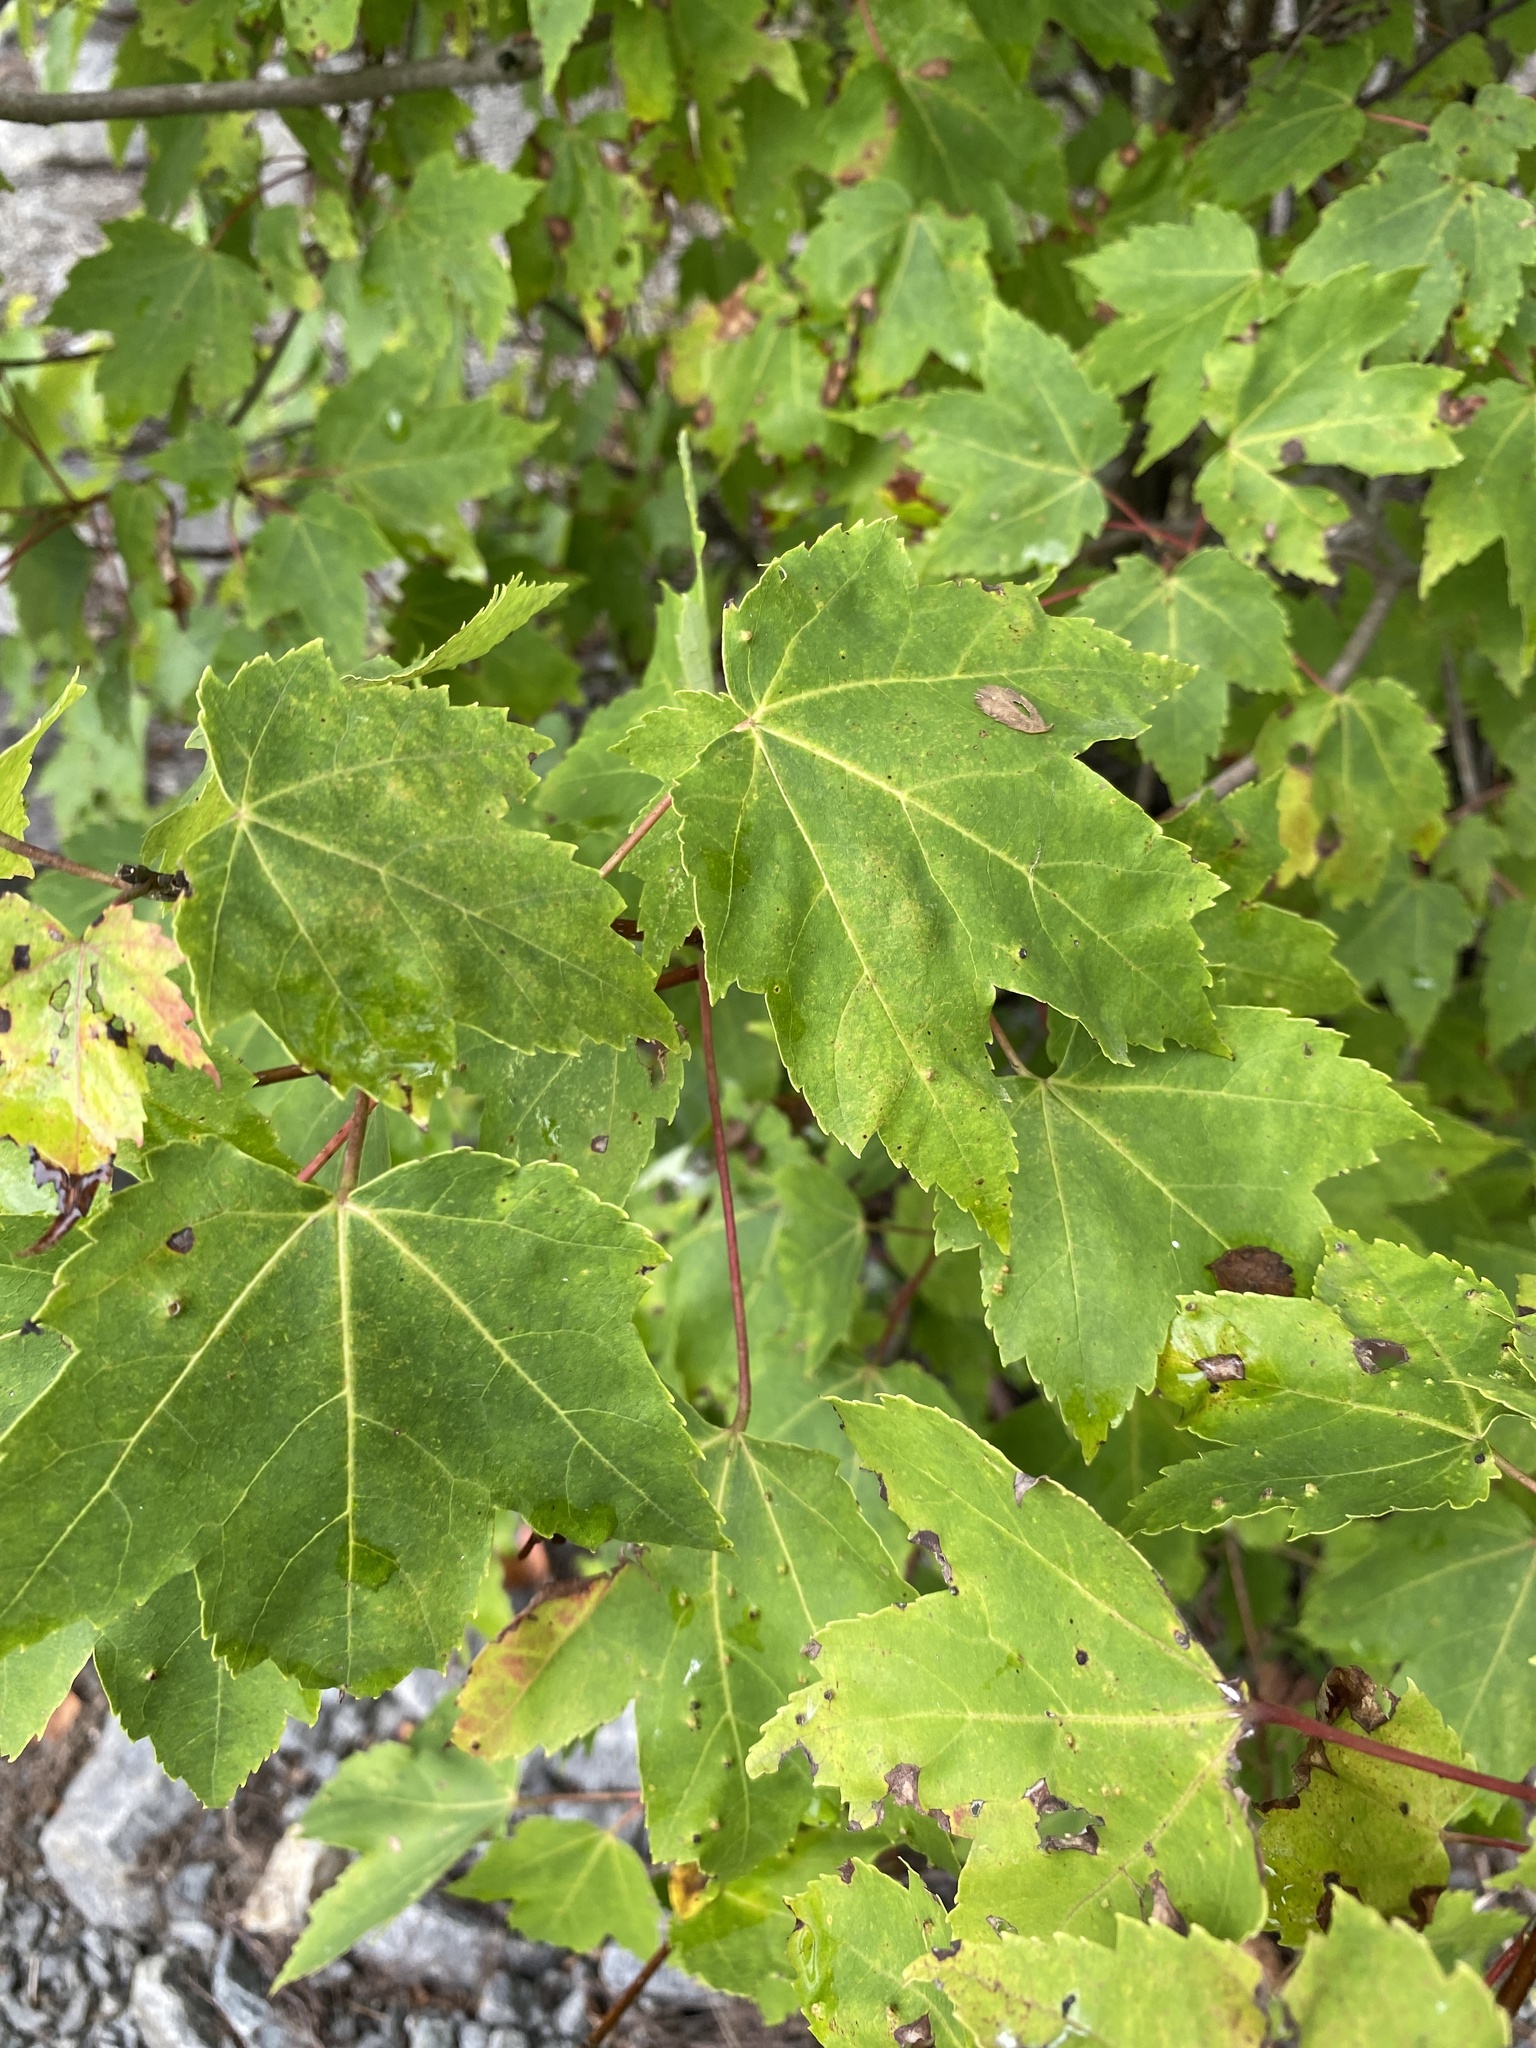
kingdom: Plantae
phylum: Tracheophyta
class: Magnoliopsida
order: Sapindales
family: Sapindaceae
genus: Acer
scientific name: Acer rubrum
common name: Red maple
